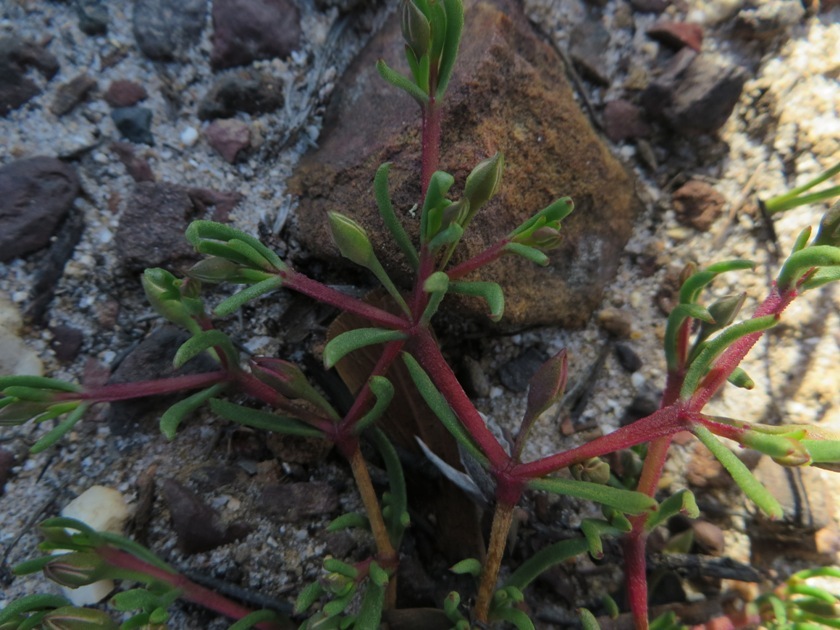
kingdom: Plantae
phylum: Tracheophyta
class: Magnoliopsida
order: Caryophyllales
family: Aizoaceae
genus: Acrosanthes
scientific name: Acrosanthes teretifolia
